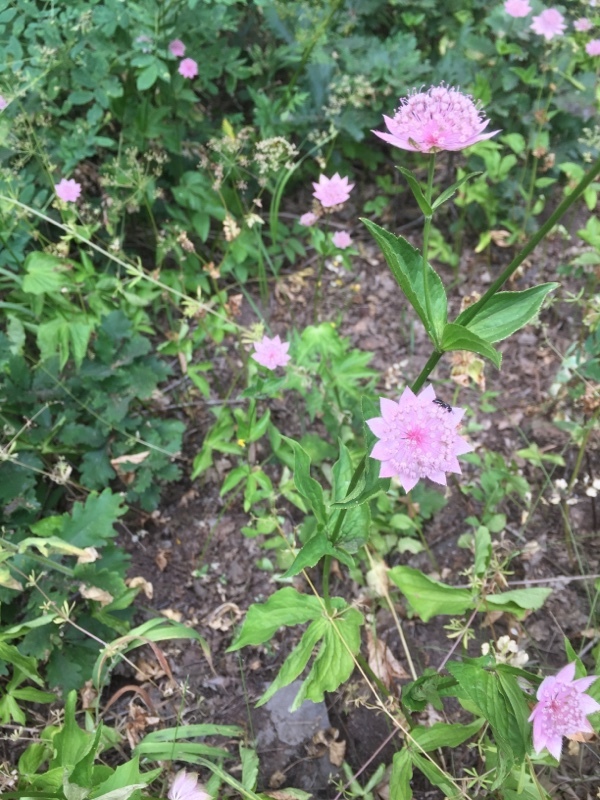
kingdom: Plantae
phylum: Tracheophyta
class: Magnoliopsida
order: Apiales
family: Apiaceae
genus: Astrantia
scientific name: Astrantia maxima
